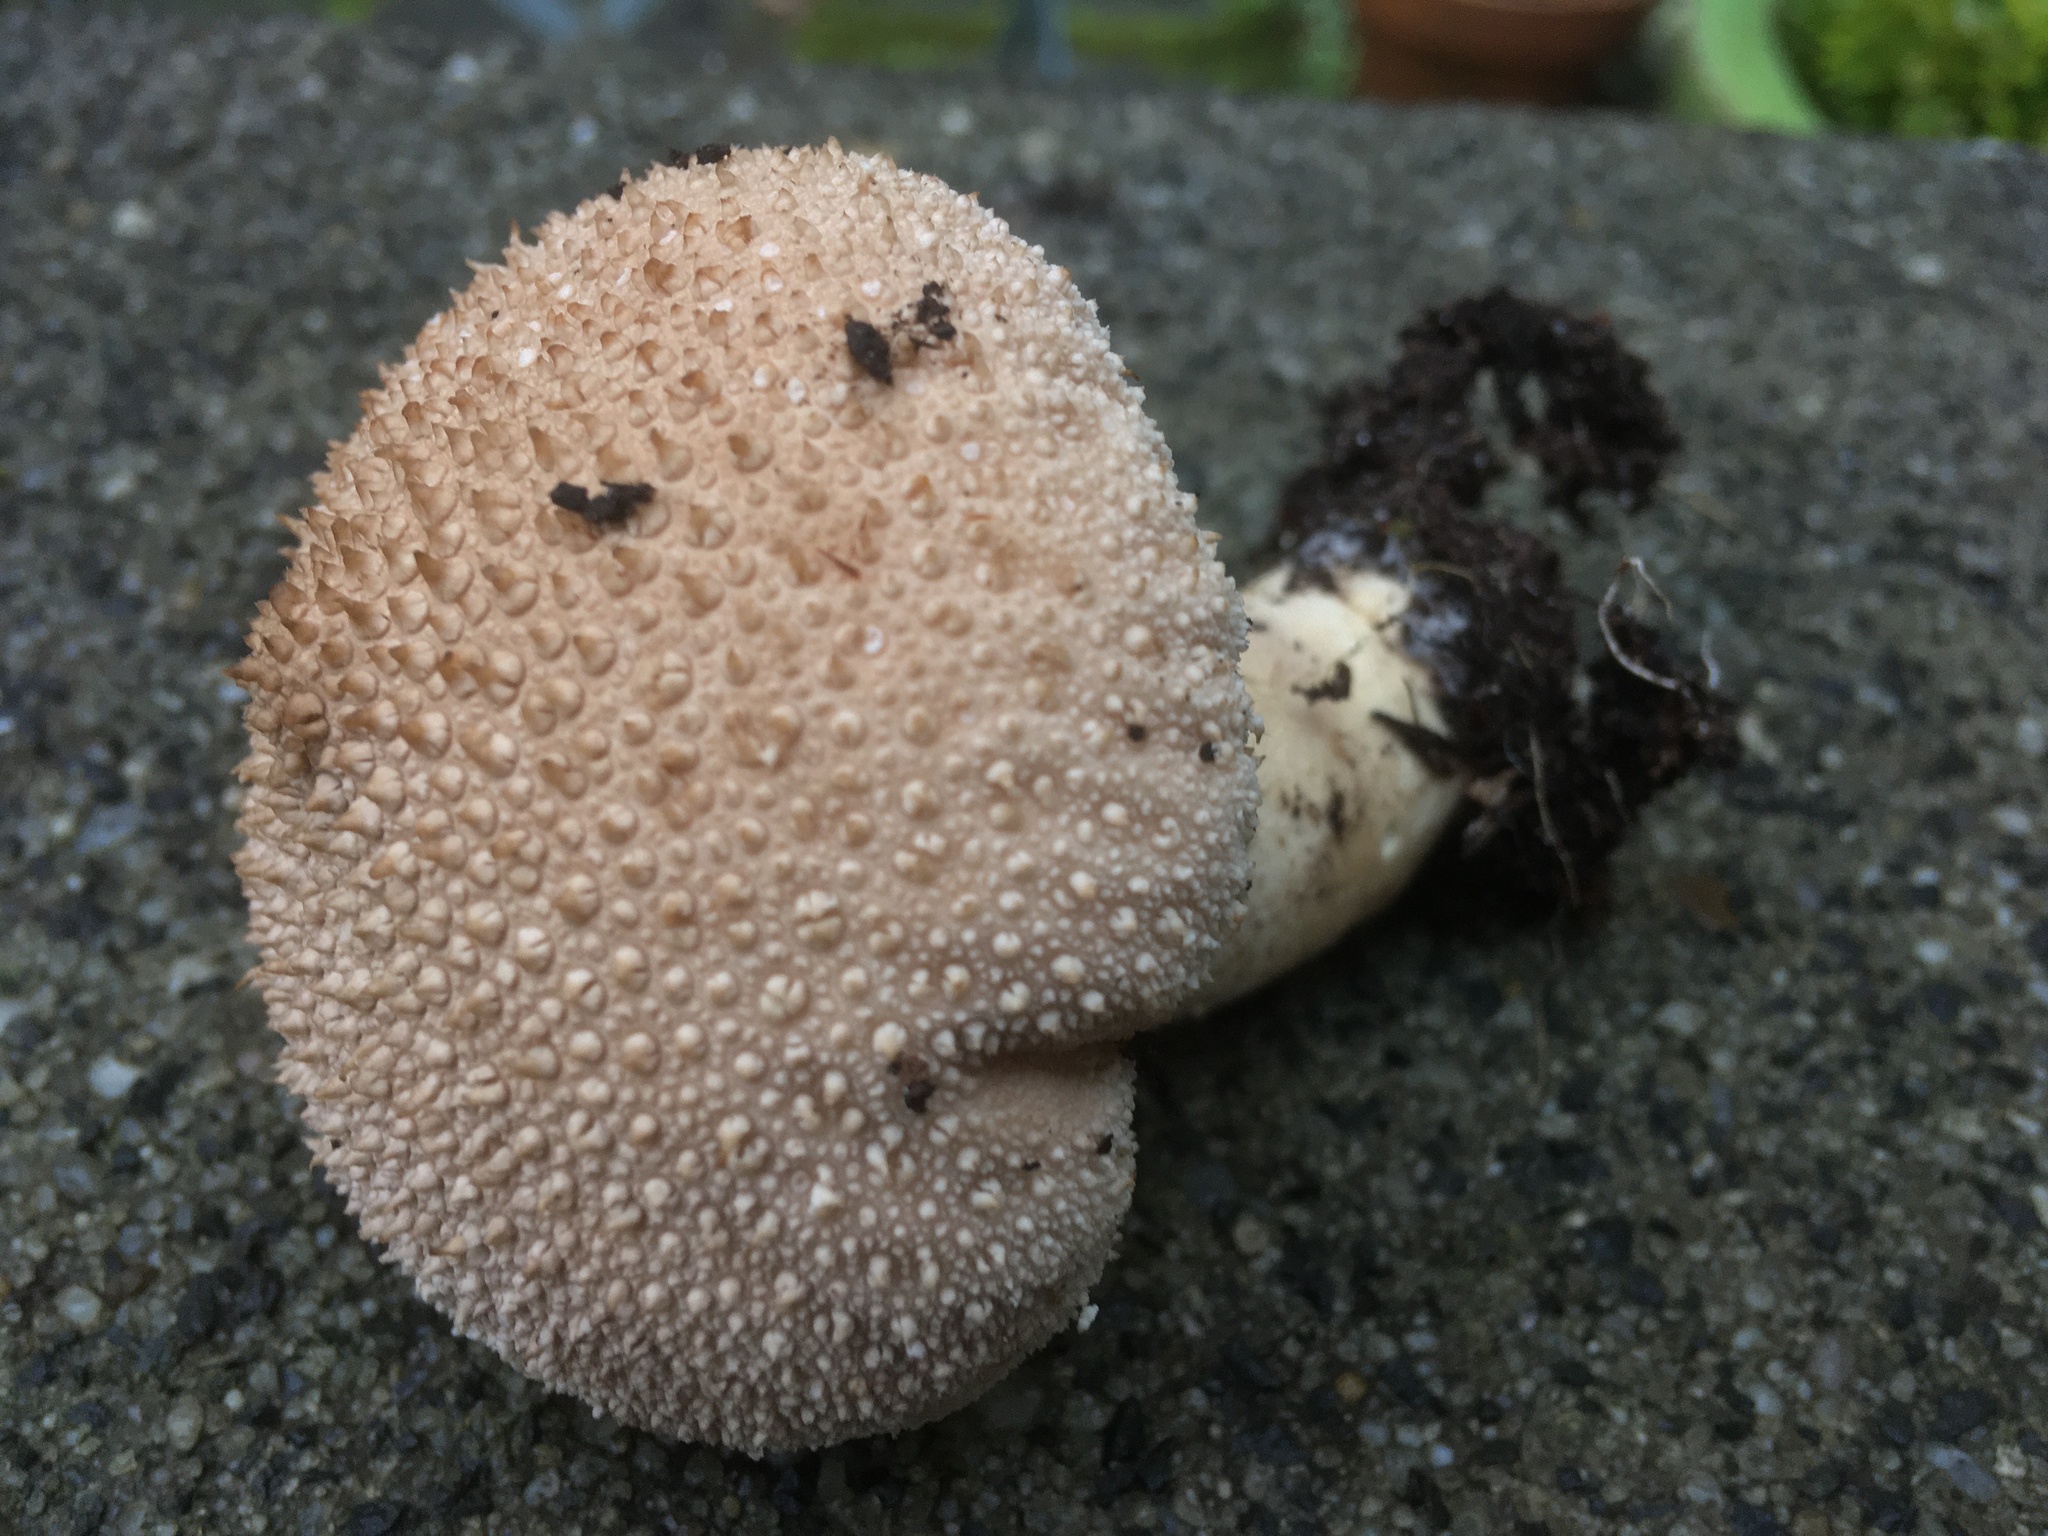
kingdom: Fungi
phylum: Basidiomycota
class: Agaricomycetes
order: Agaricales
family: Lycoperdaceae
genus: Lycoperdon
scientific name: Lycoperdon perlatum
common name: Common puffball
